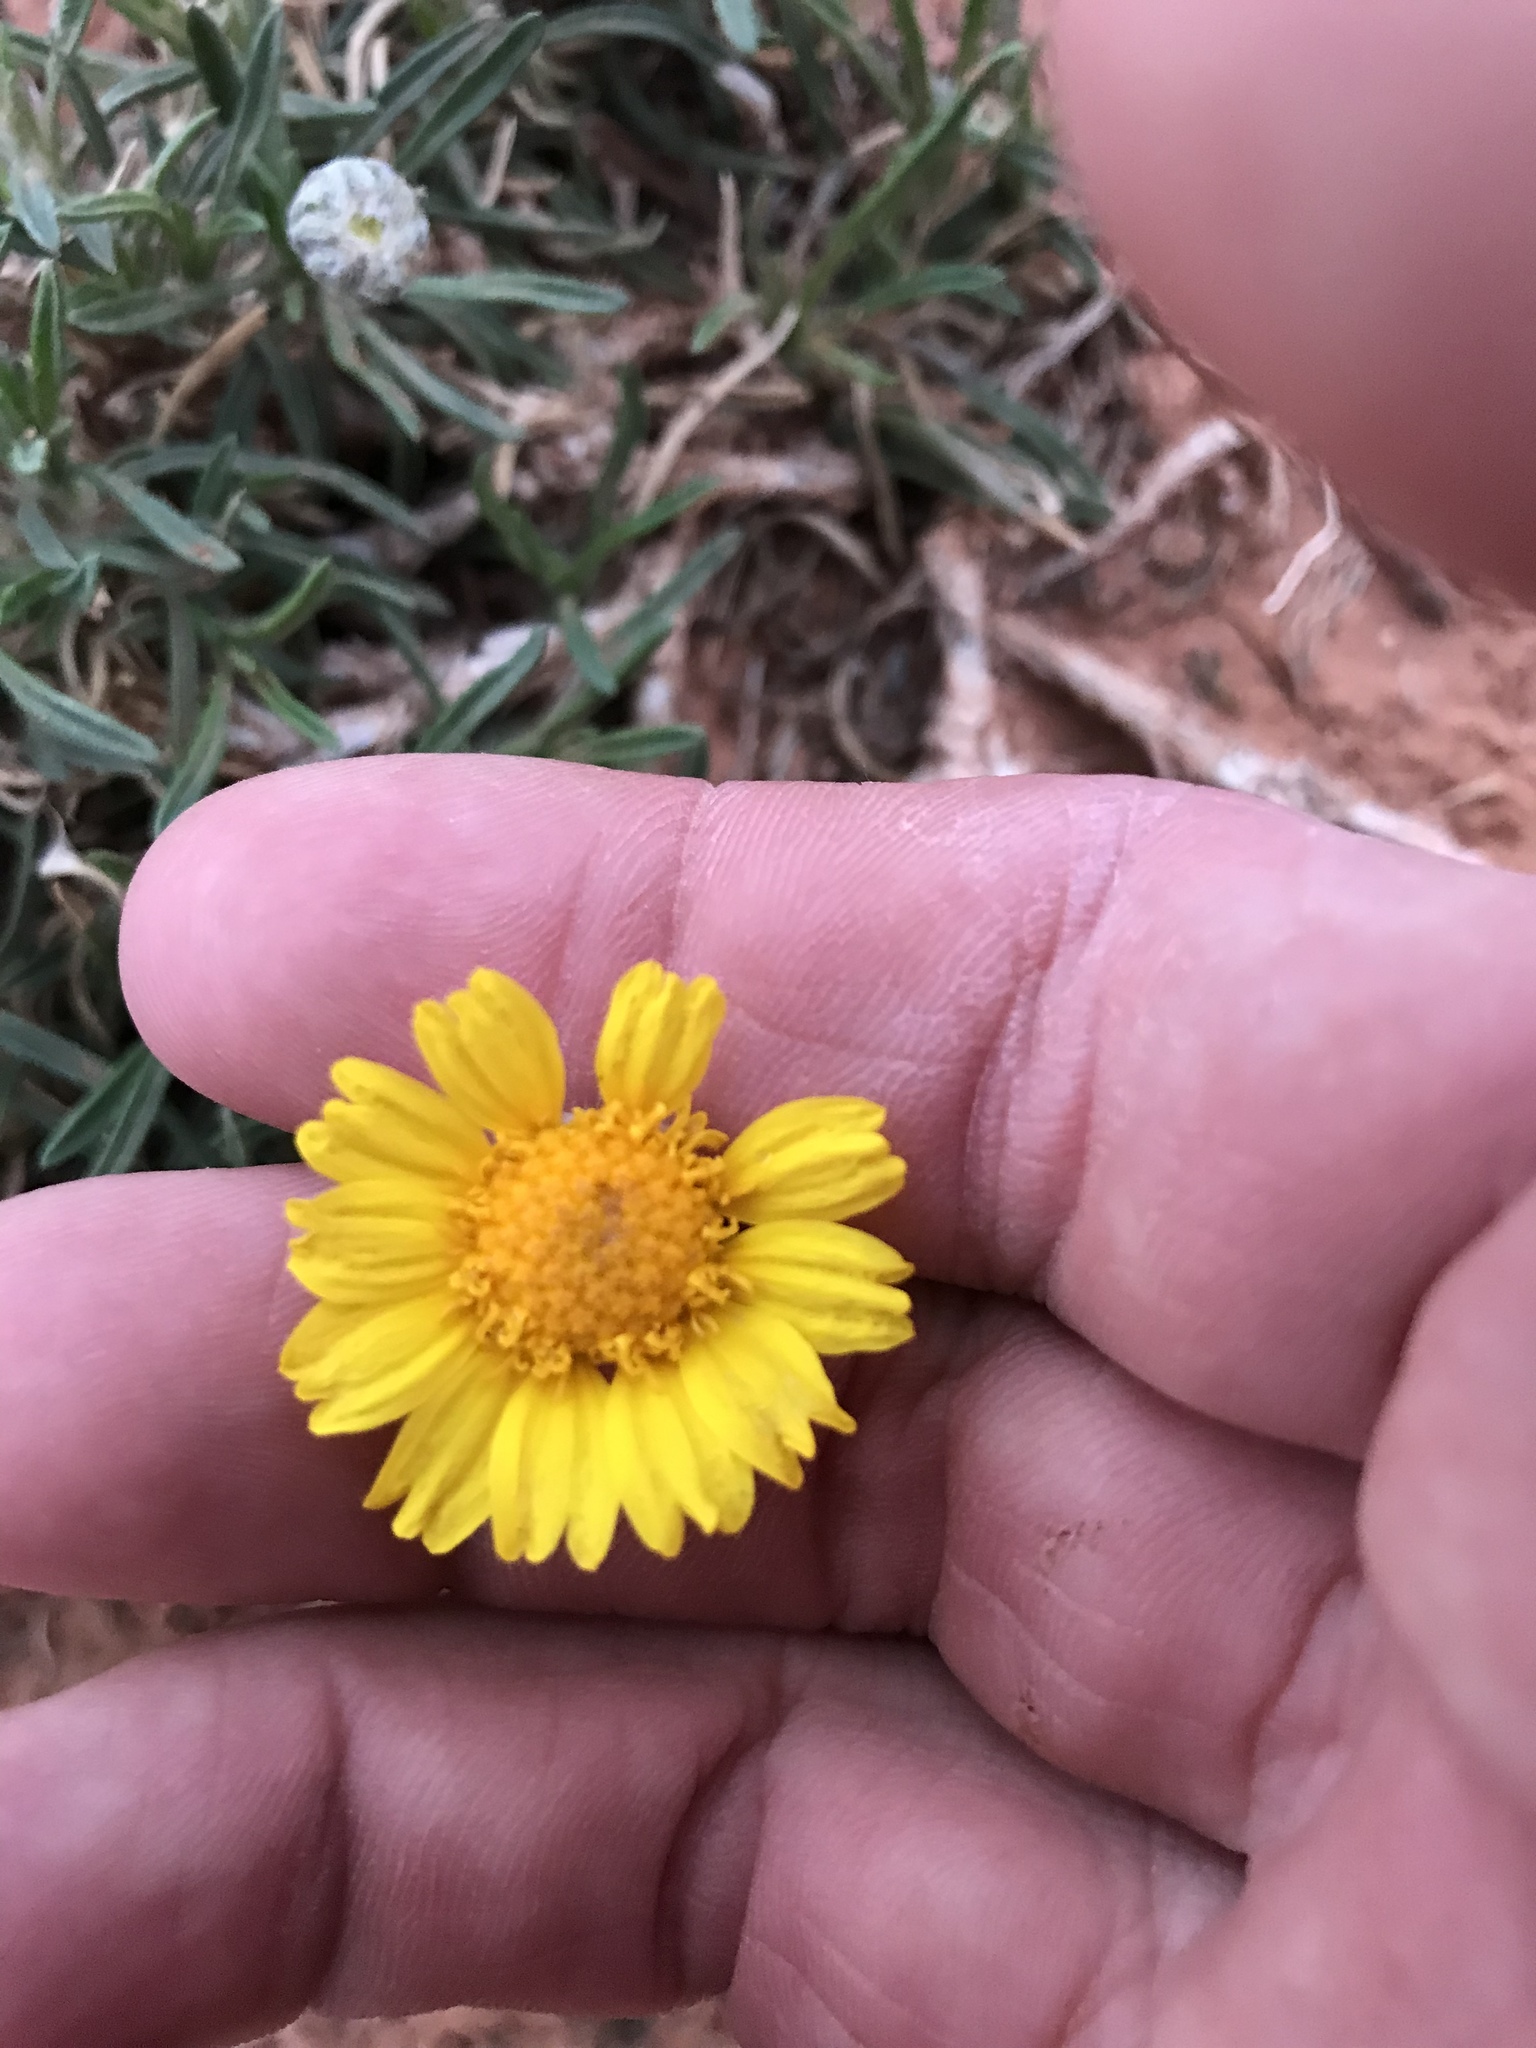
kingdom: Plantae
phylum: Tracheophyta
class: Magnoliopsida
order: Asterales
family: Asteraceae
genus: Tetraneuris
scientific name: Tetraneuris scaposa
